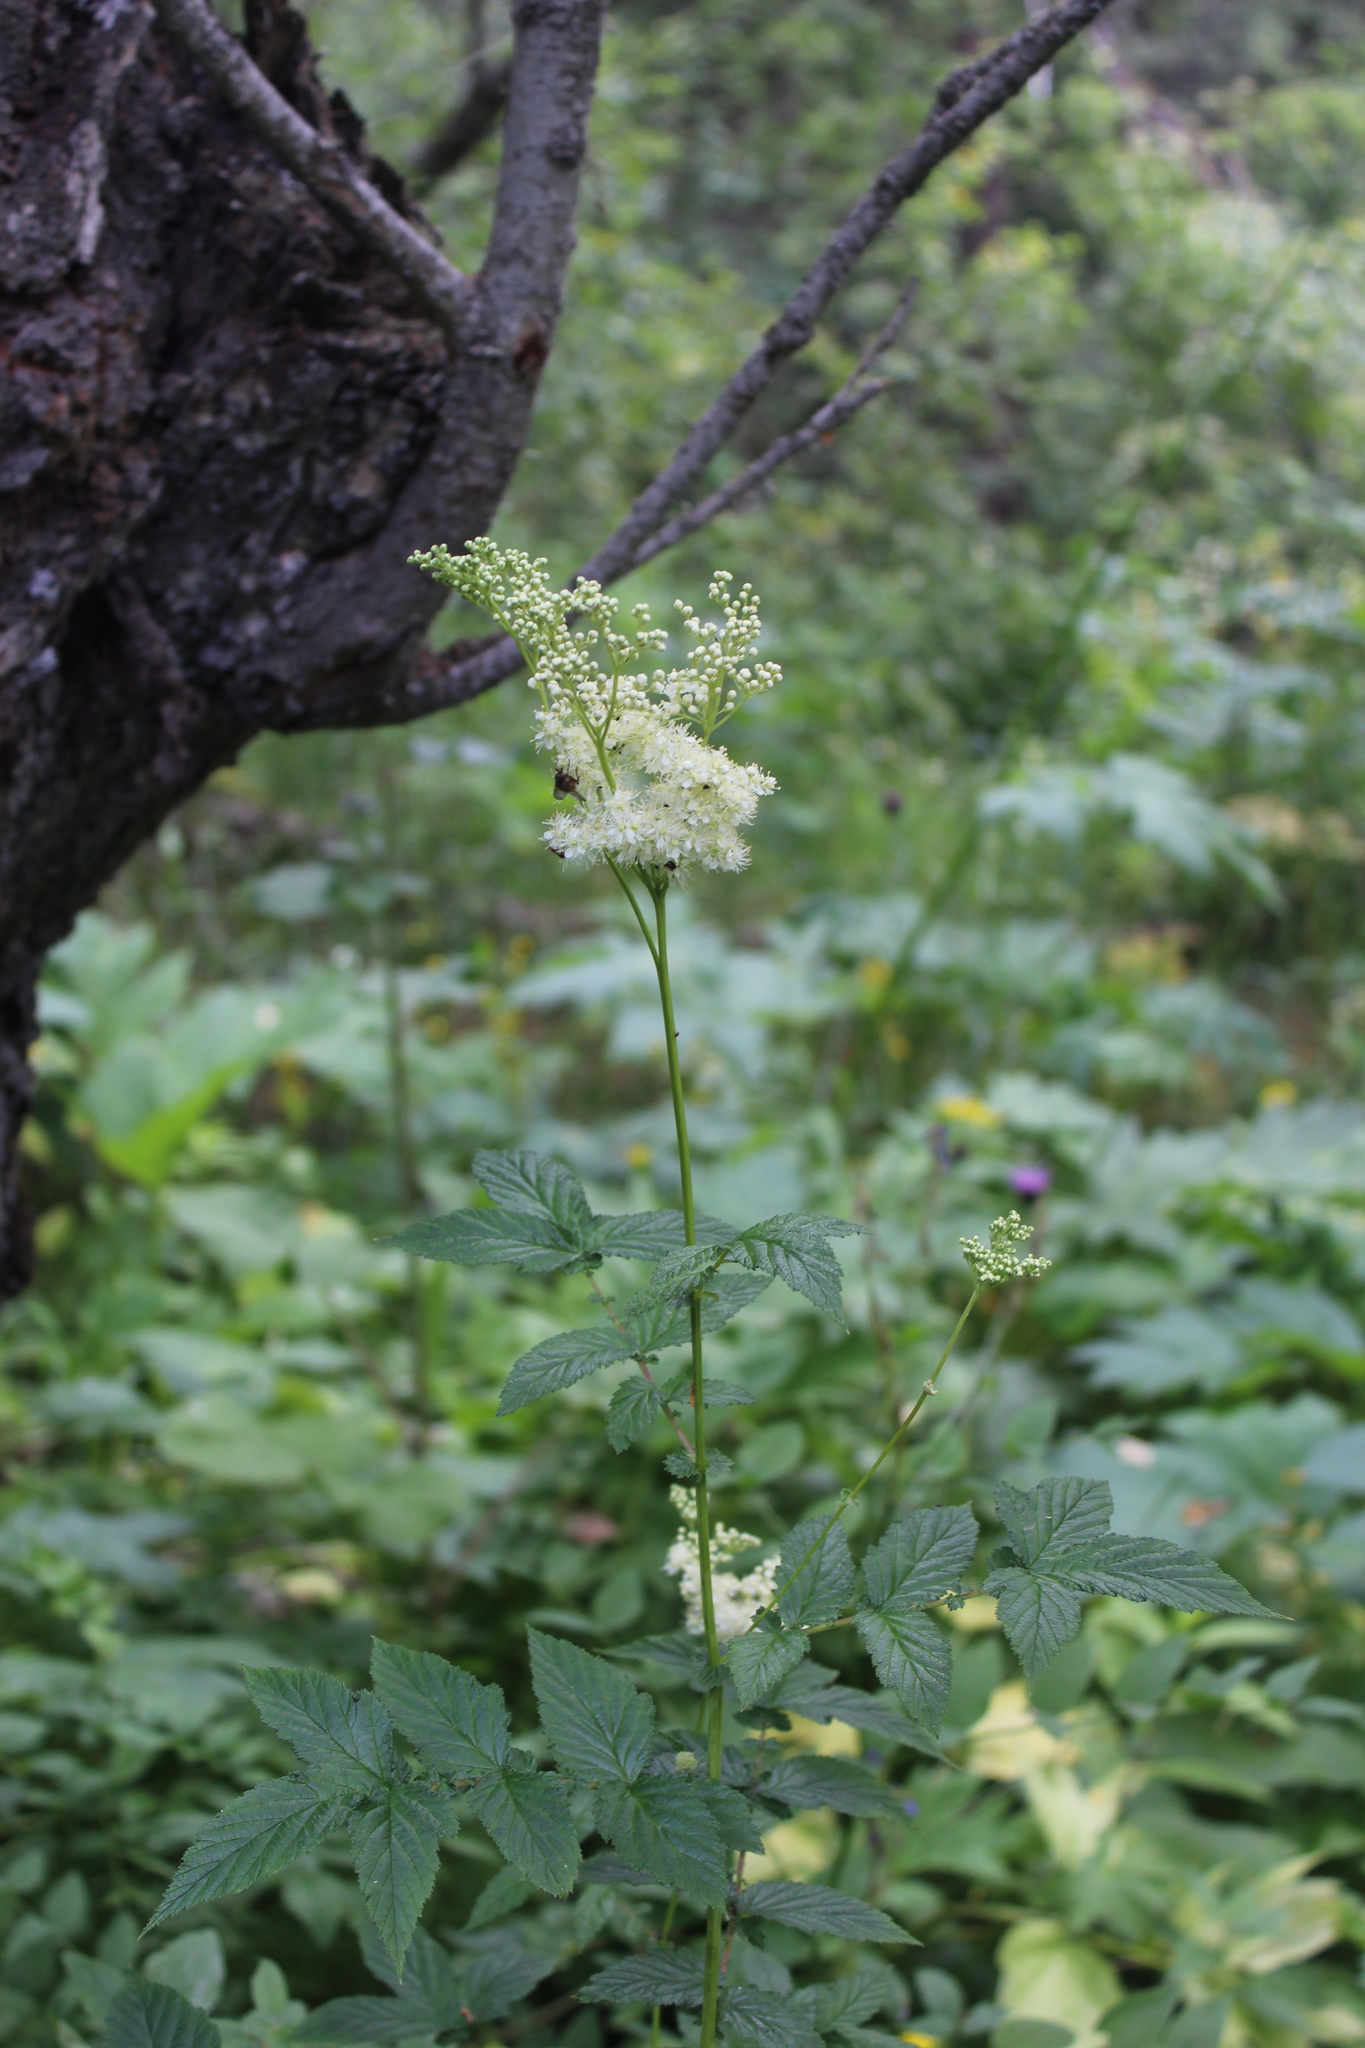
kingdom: Plantae
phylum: Tracheophyta
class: Magnoliopsida
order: Rosales
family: Rosaceae
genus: Filipendula
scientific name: Filipendula ulmaria
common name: Meadowsweet
